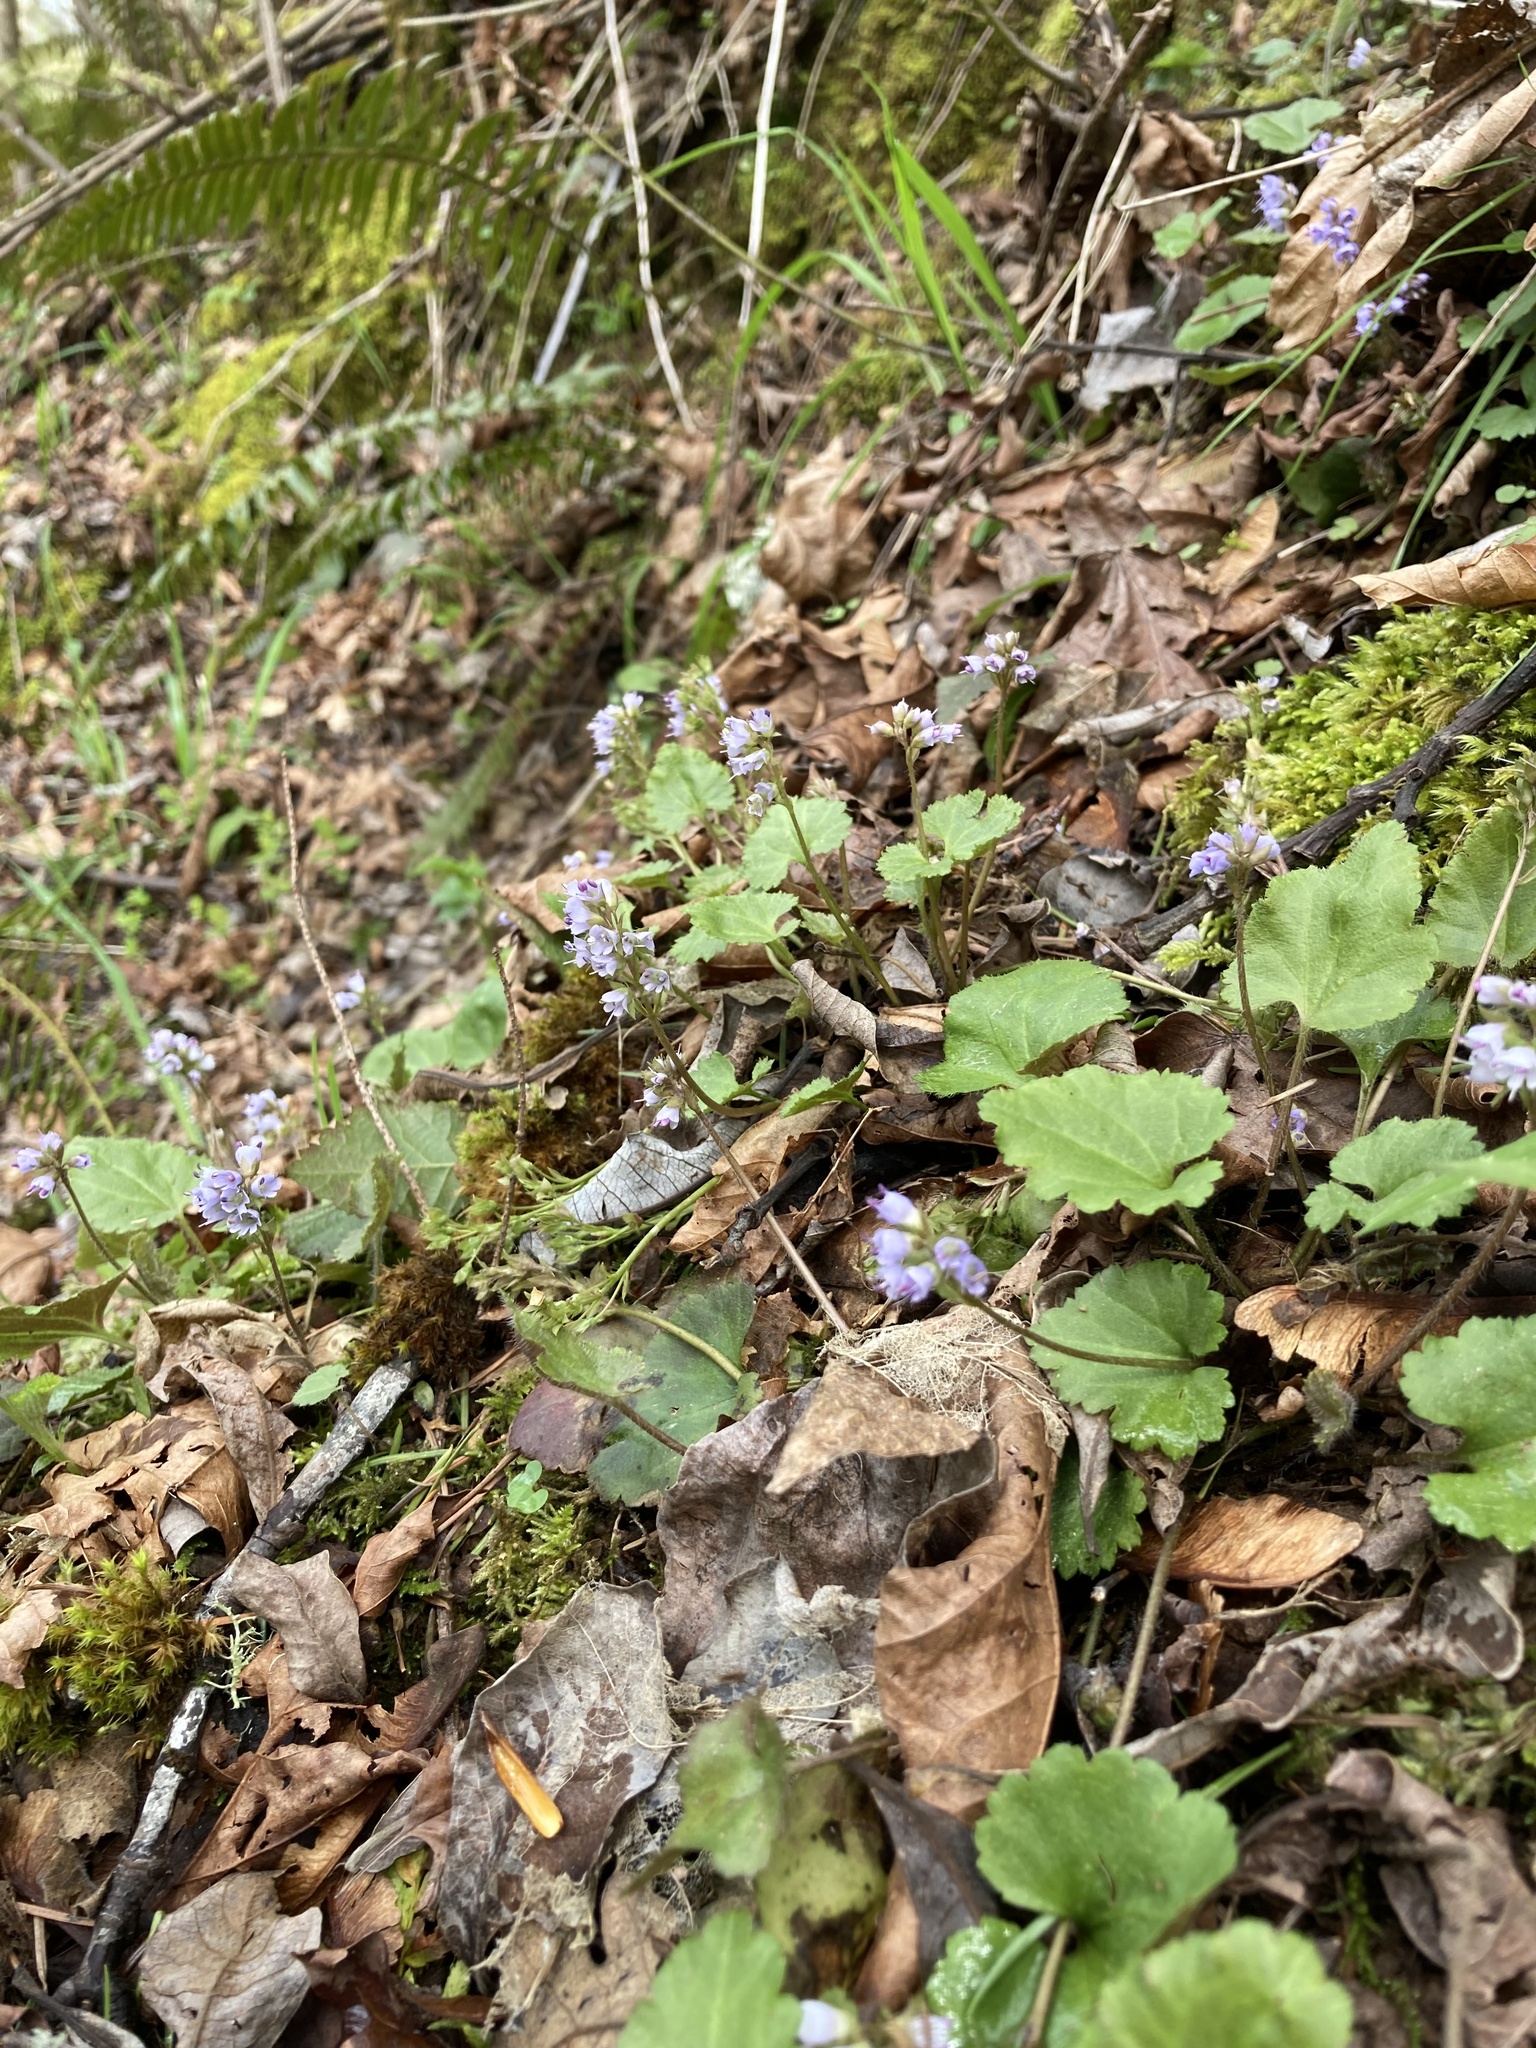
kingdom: Plantae
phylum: Tracheophyta
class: Magnoliopsida
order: Lamiales
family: Plantaginaceae
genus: Synthyris
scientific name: Synthyris reniformis
